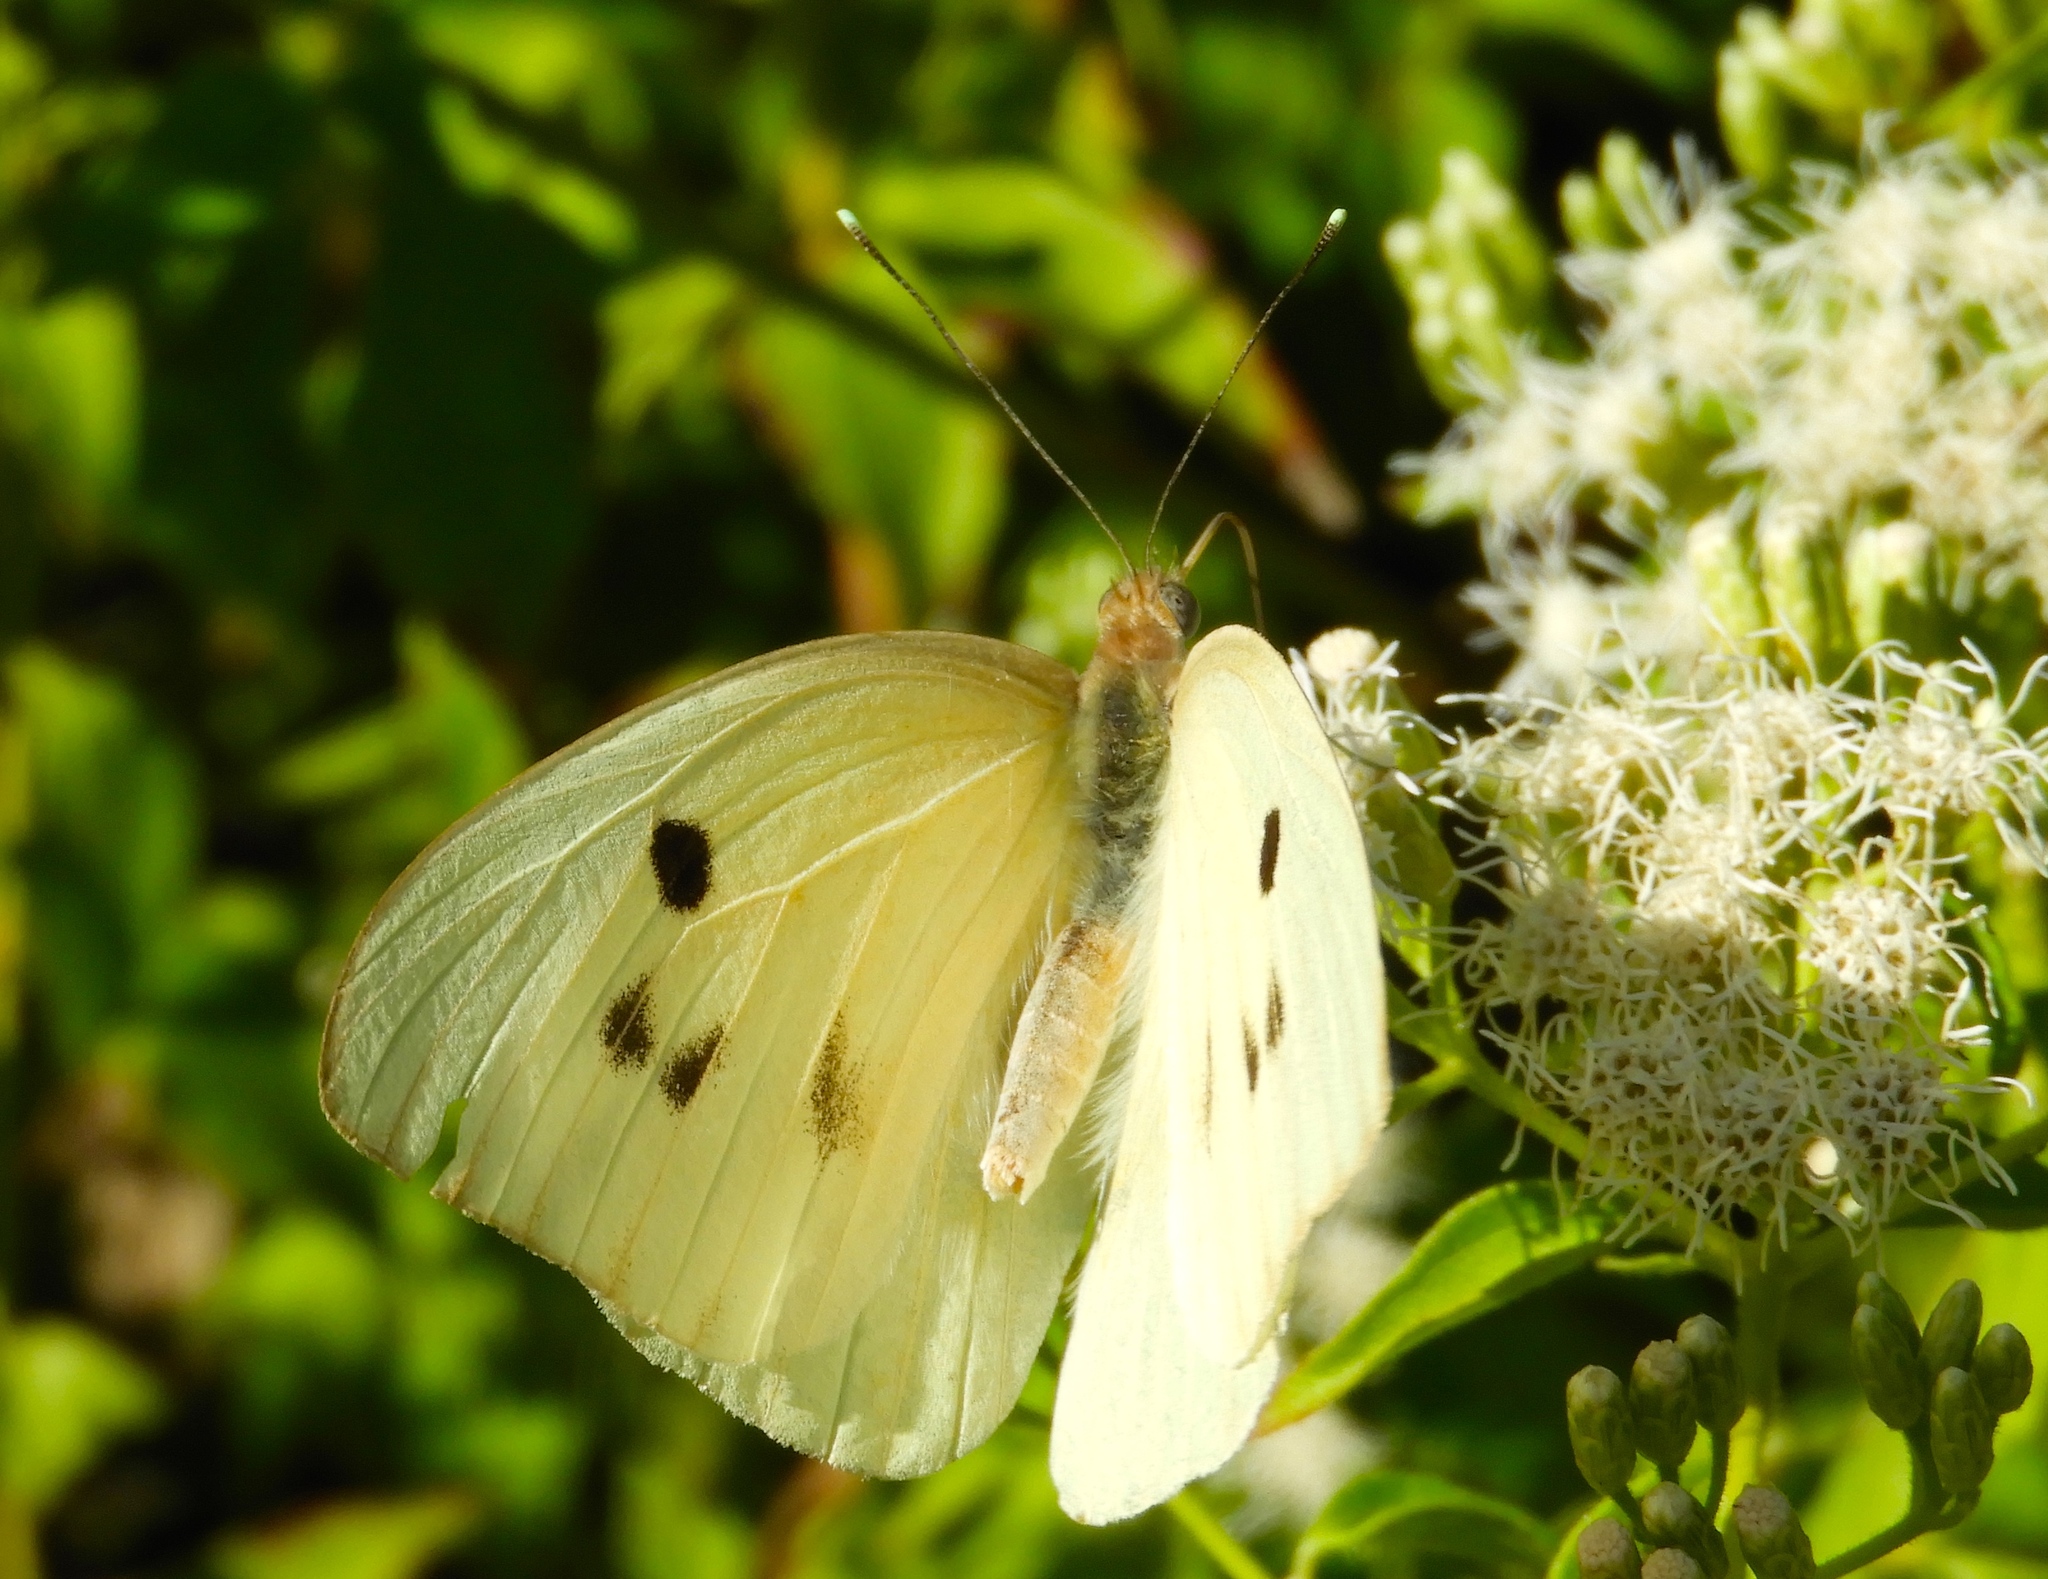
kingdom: Animalia
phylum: Arthropoda
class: Insecta
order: Lepidoptera
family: Pieridae
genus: Ganyra
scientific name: Ganyra josephina
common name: Giant white
